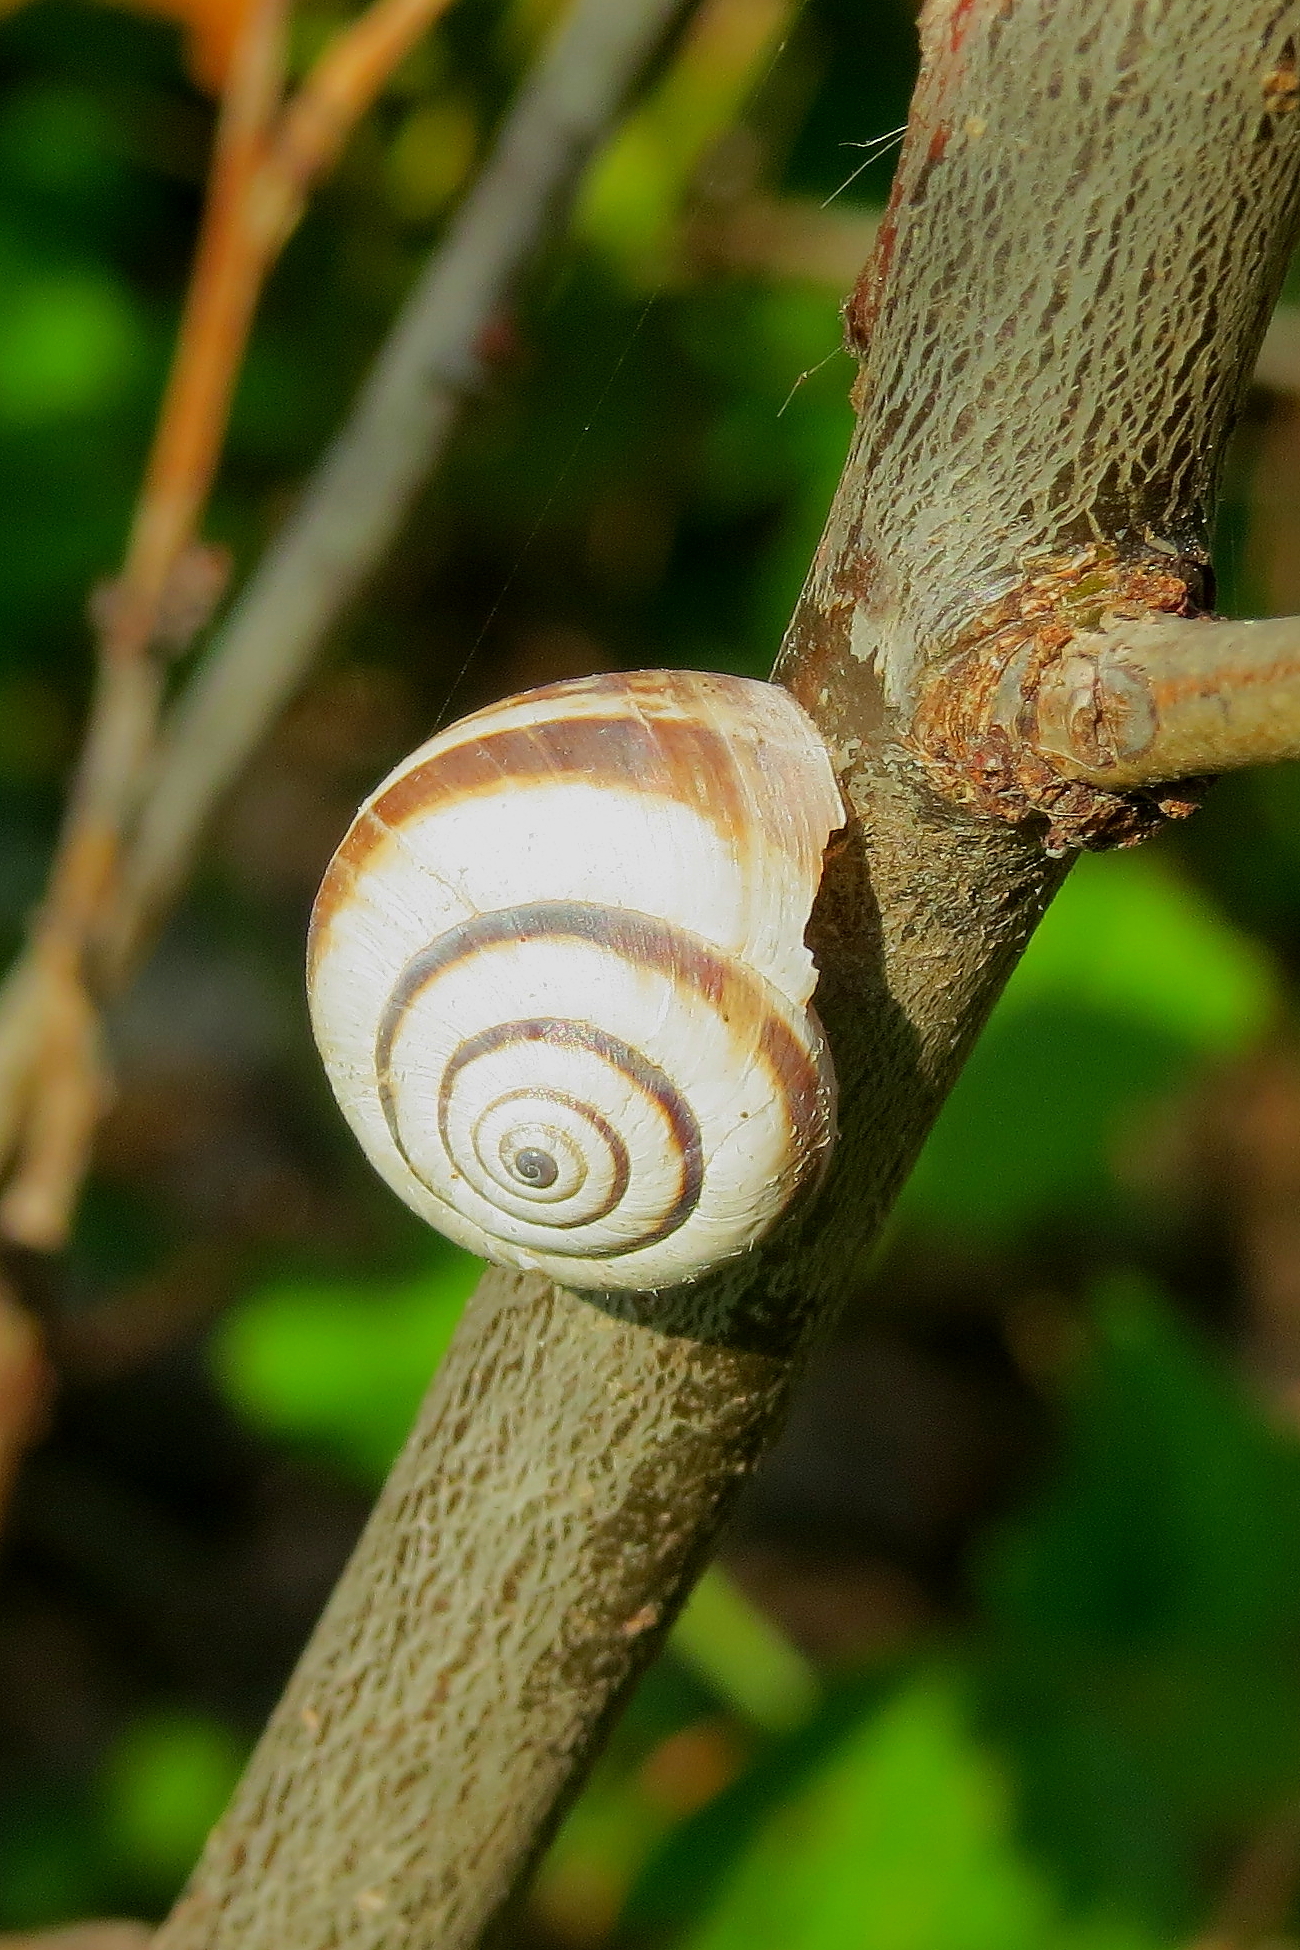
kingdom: Animalia
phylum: Mollusca
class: Gastropoda
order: Stylommatophora
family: Geomitridae
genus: Cernuella
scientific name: Cernuella virgata
